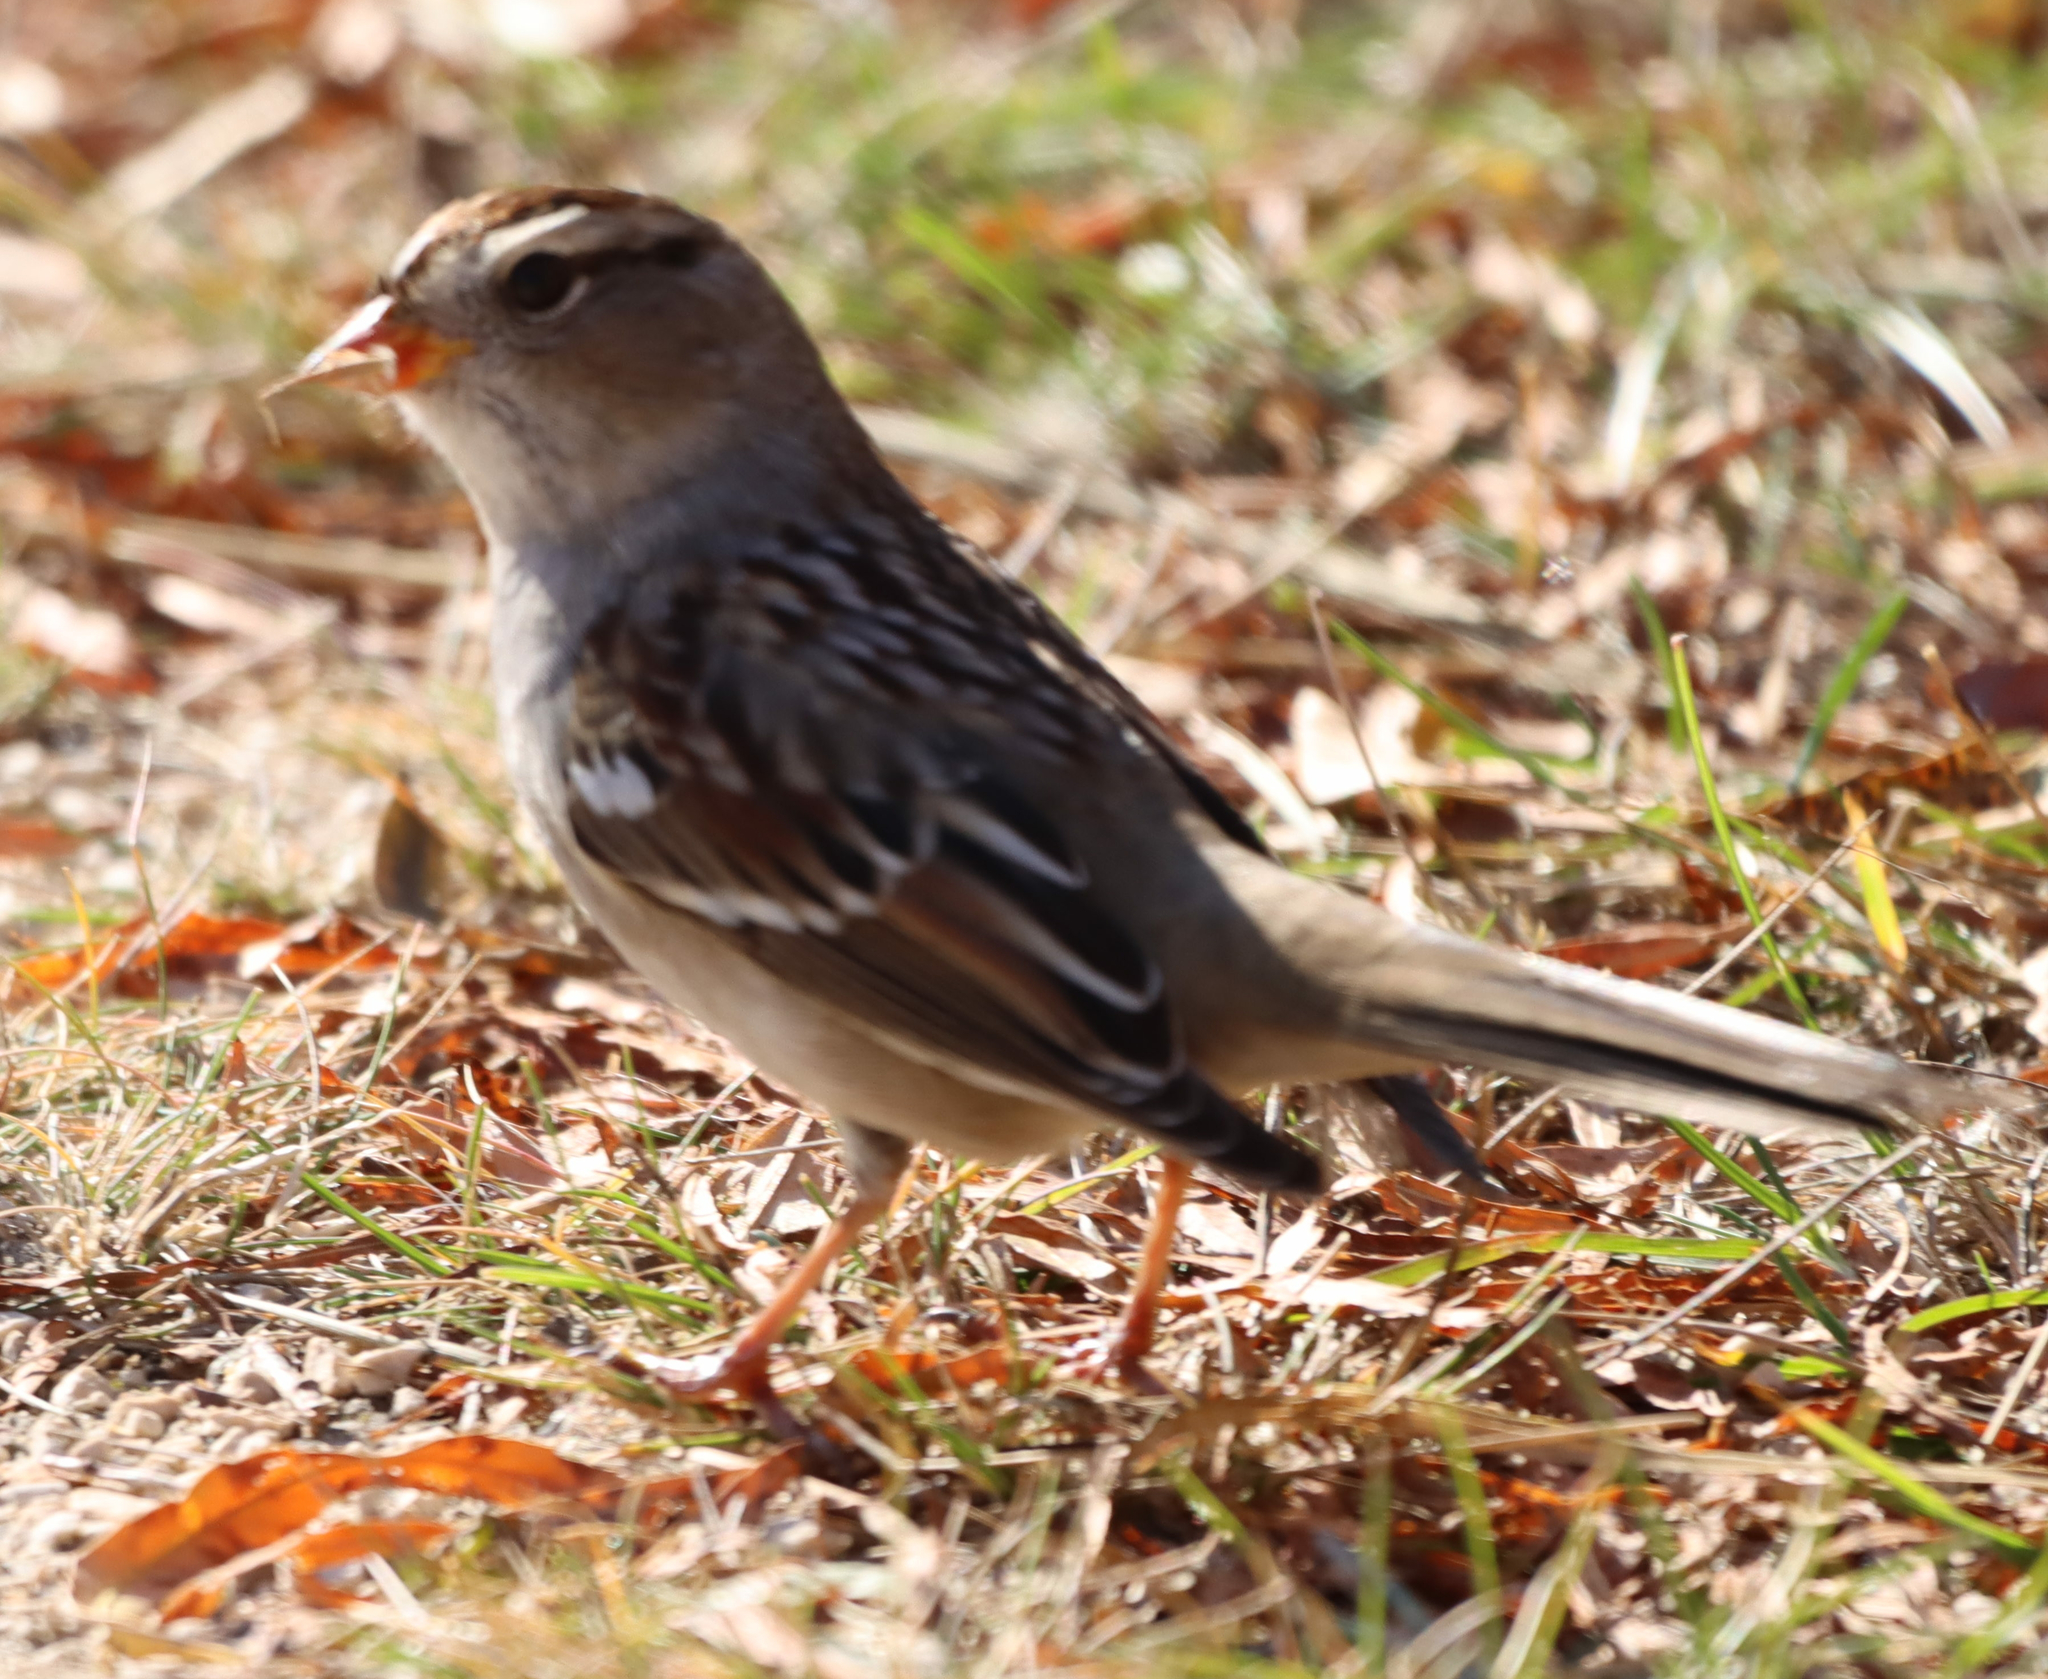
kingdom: Animalia
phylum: Chordata
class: Aves
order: Passeriformes
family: Passerellidae
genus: Zonotrichia
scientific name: Zonotrichia leucophrys
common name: White-crowned sparrow
